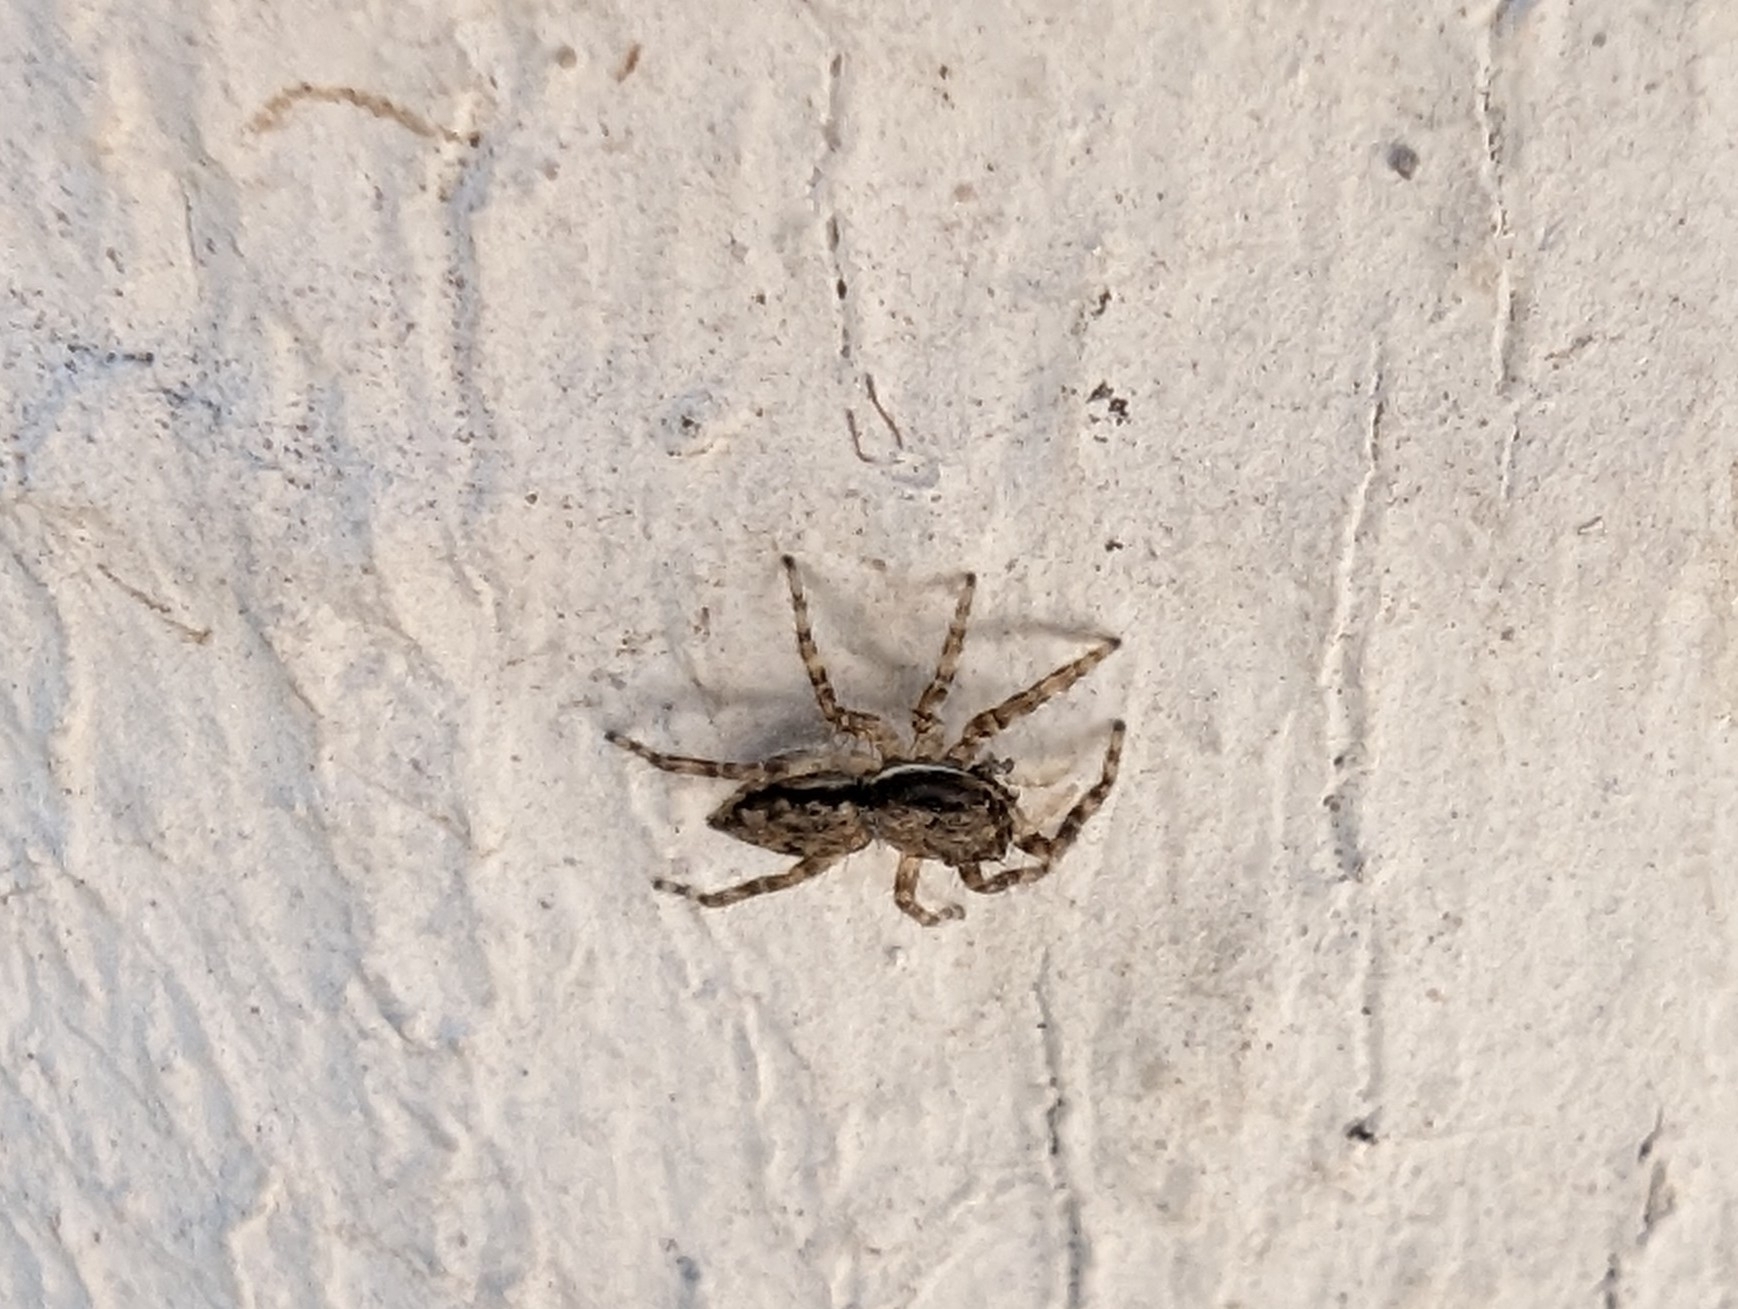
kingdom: Animalia
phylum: Arthropoda
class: Arachnida
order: Araneae
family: Salticidae
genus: Menemerus
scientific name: Menemerus bivittatus
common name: Gray wall jumper
